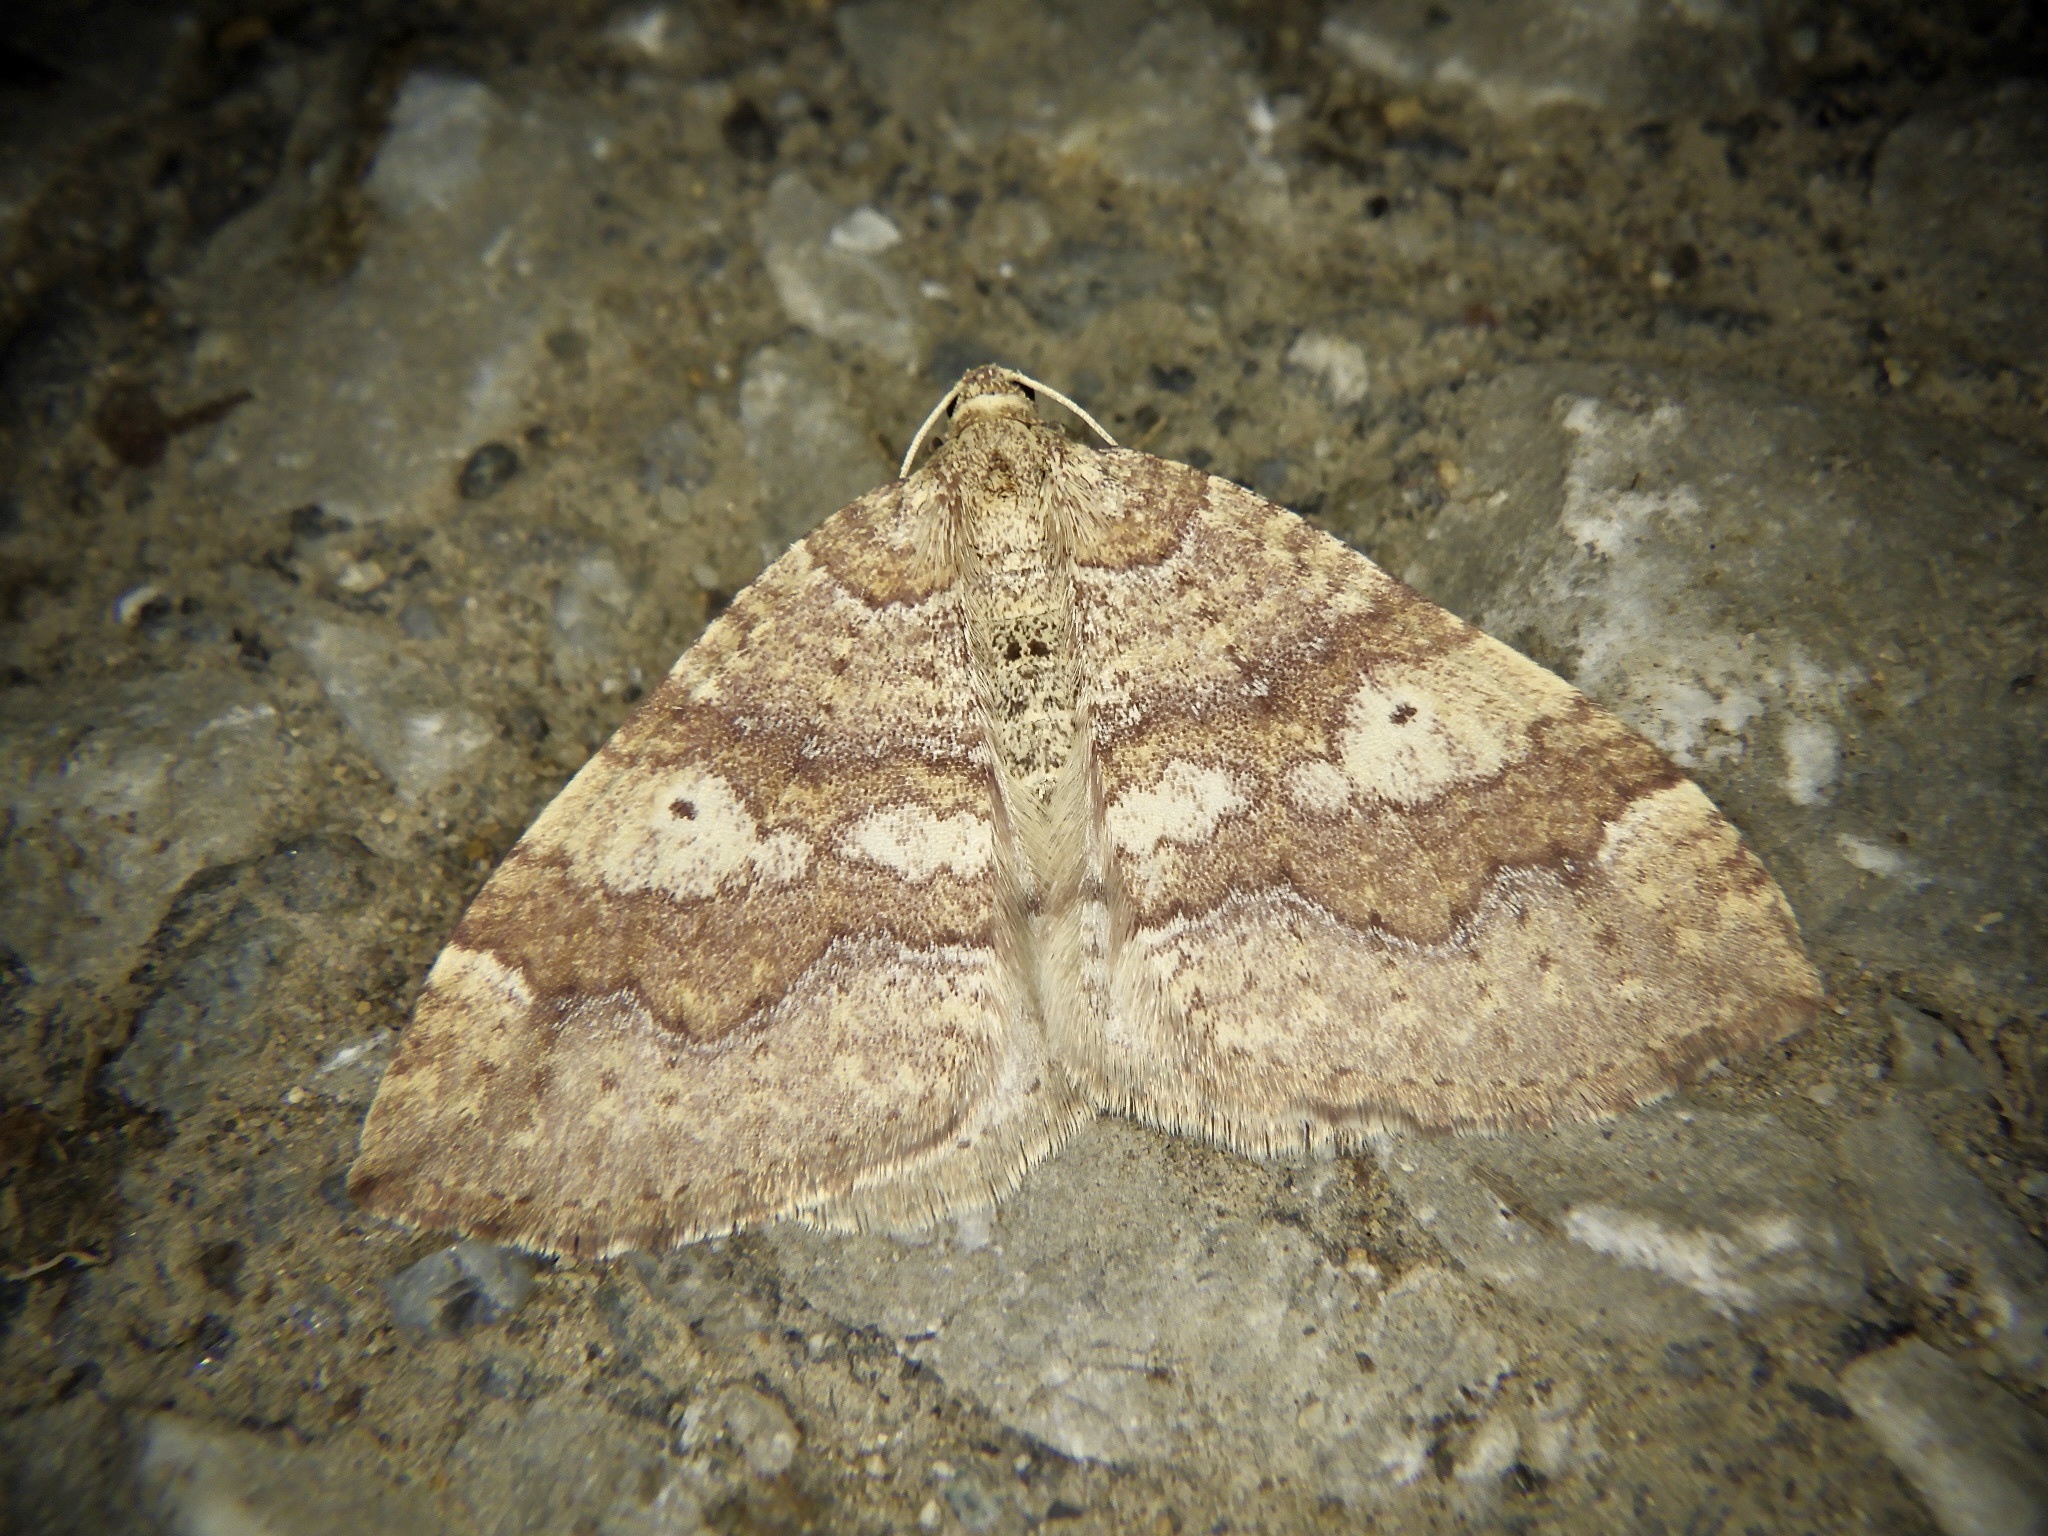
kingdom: Animalia
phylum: Arthropoda
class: Insecta
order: Lepidoptera
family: Geometridae
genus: Idiotephria
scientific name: Idiotephria evanescens
